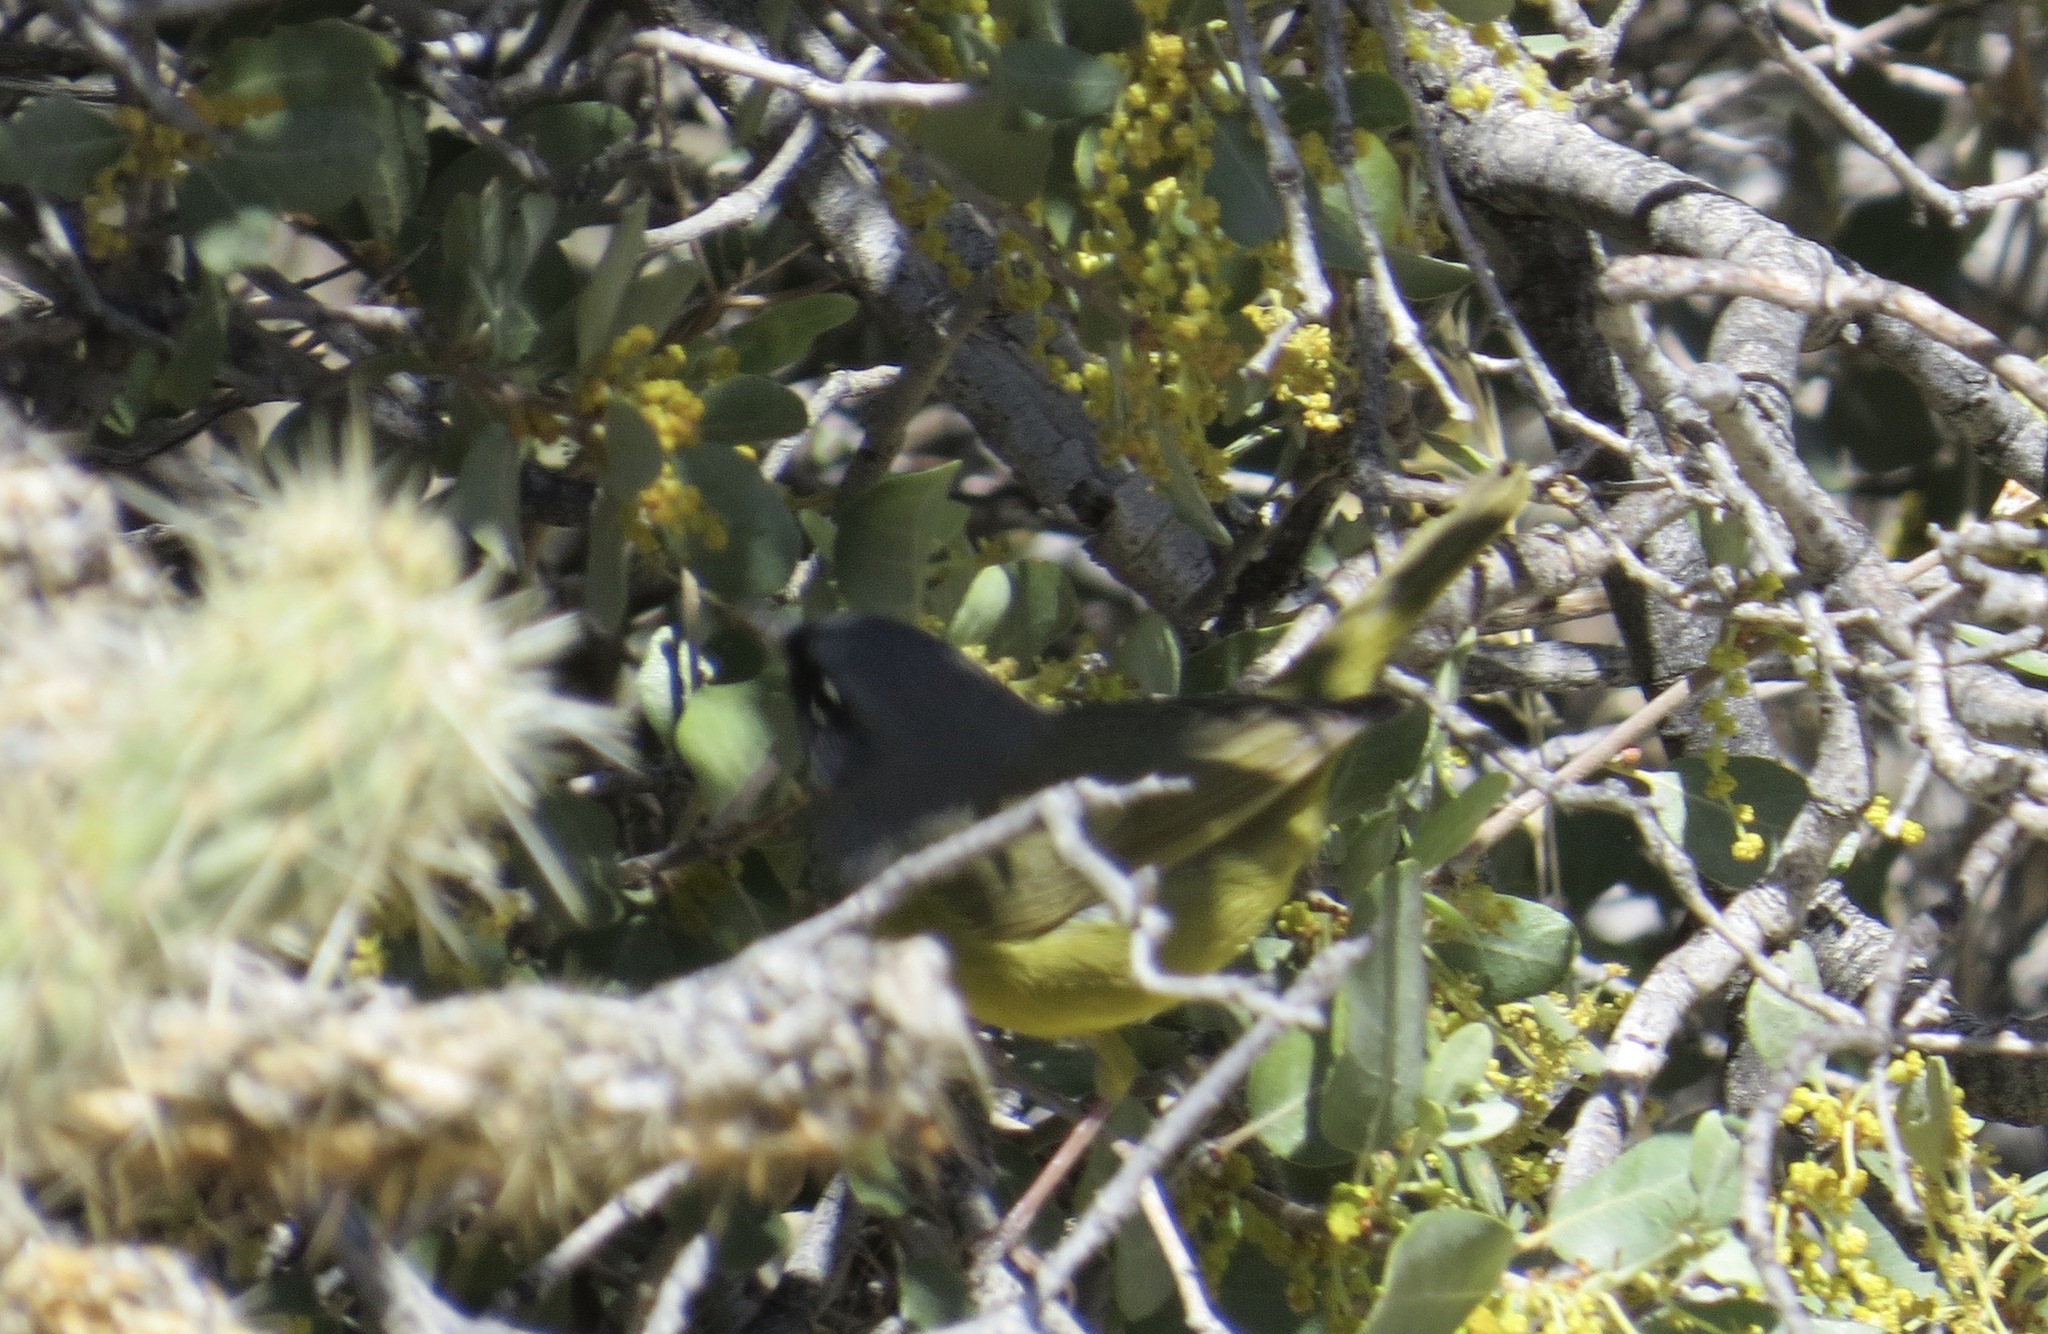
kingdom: Animalia
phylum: Chordata
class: Aves
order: Passeriformes
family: Parulidae
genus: Geothlypis
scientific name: Geothlypis tolmiei
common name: Macgillivray's warbler
